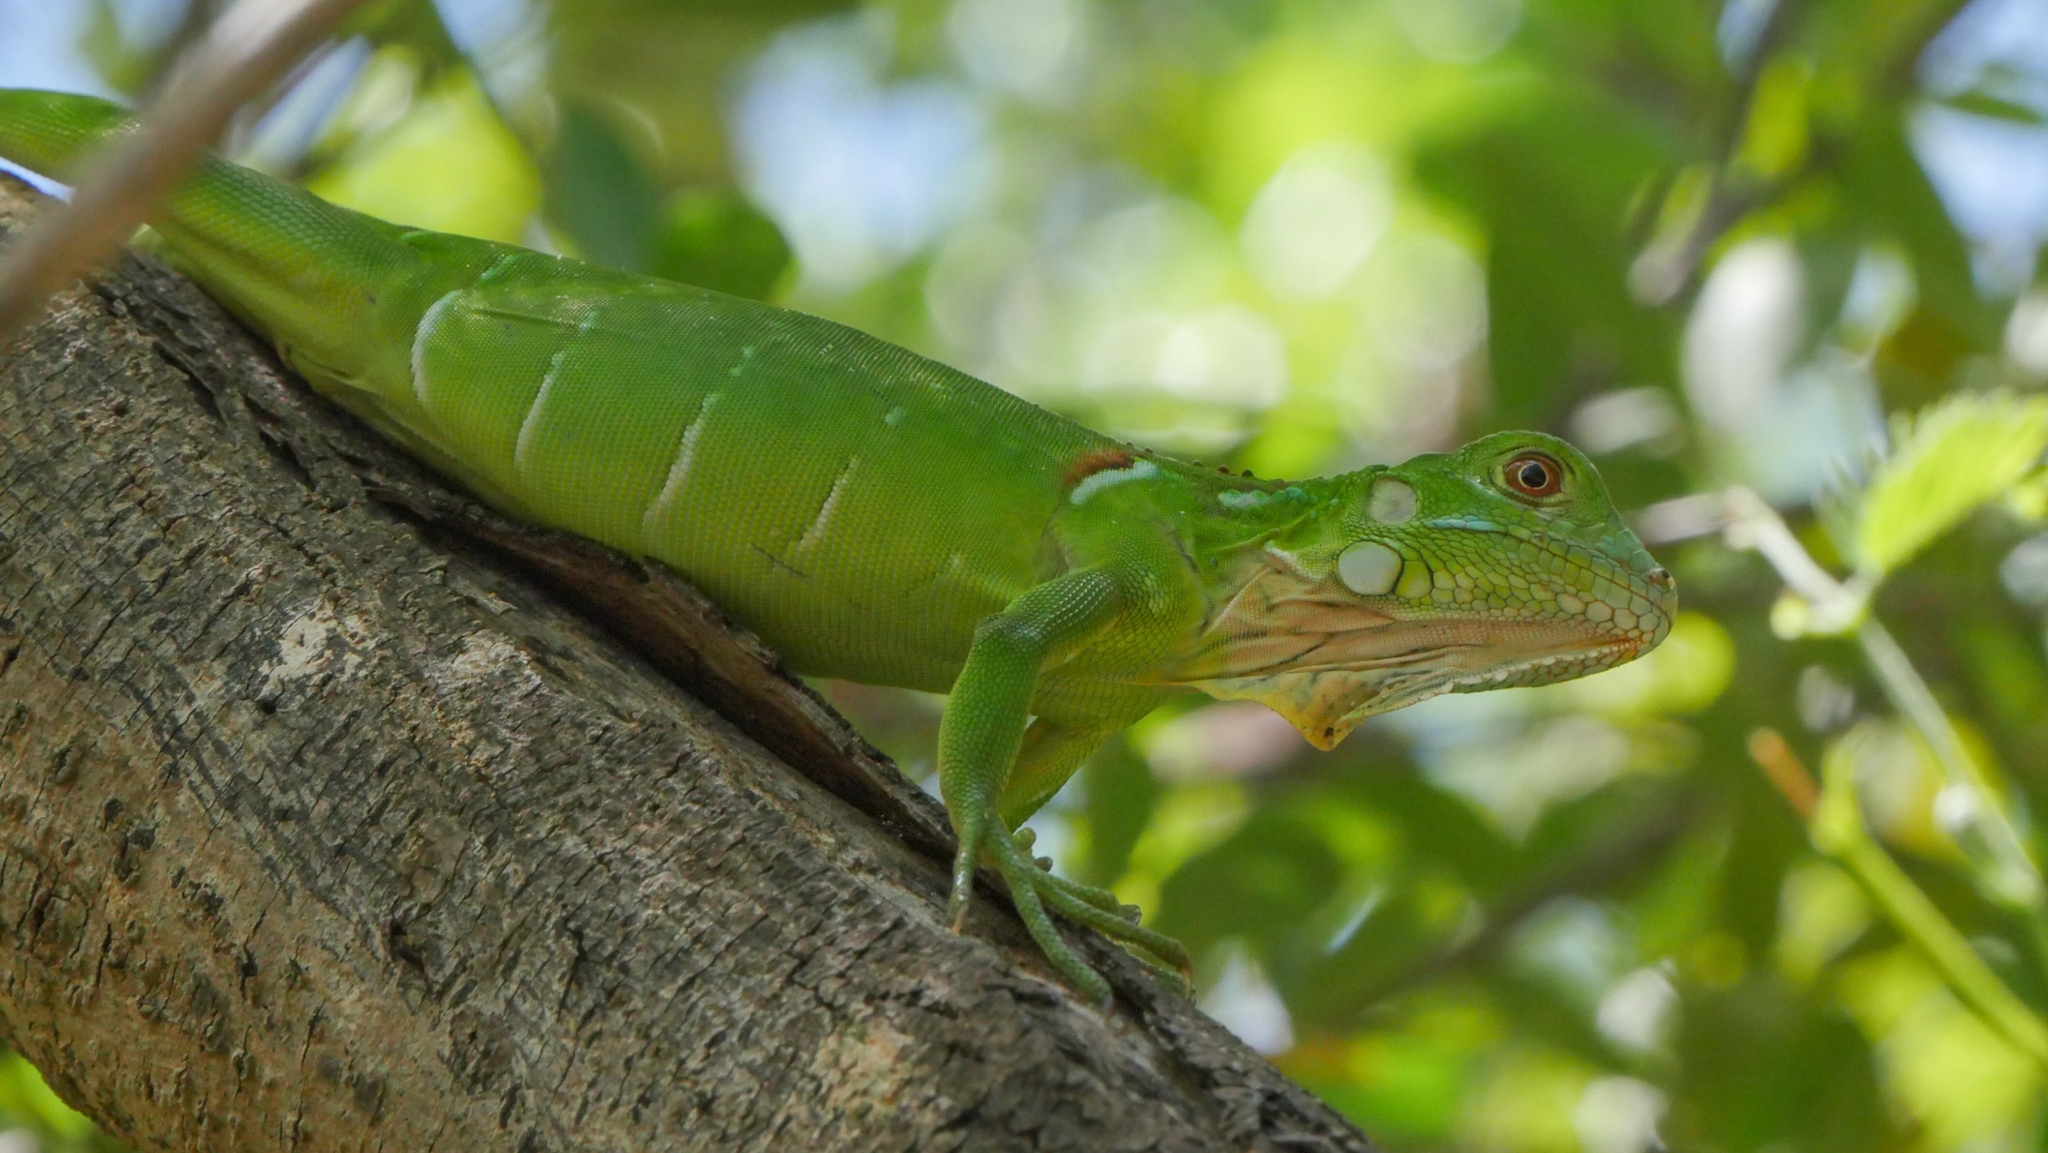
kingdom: Animalia
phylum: Chordata
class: Squamata
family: Iguanidae
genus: Iguana
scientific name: Iguana iguana
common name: Green iguana
